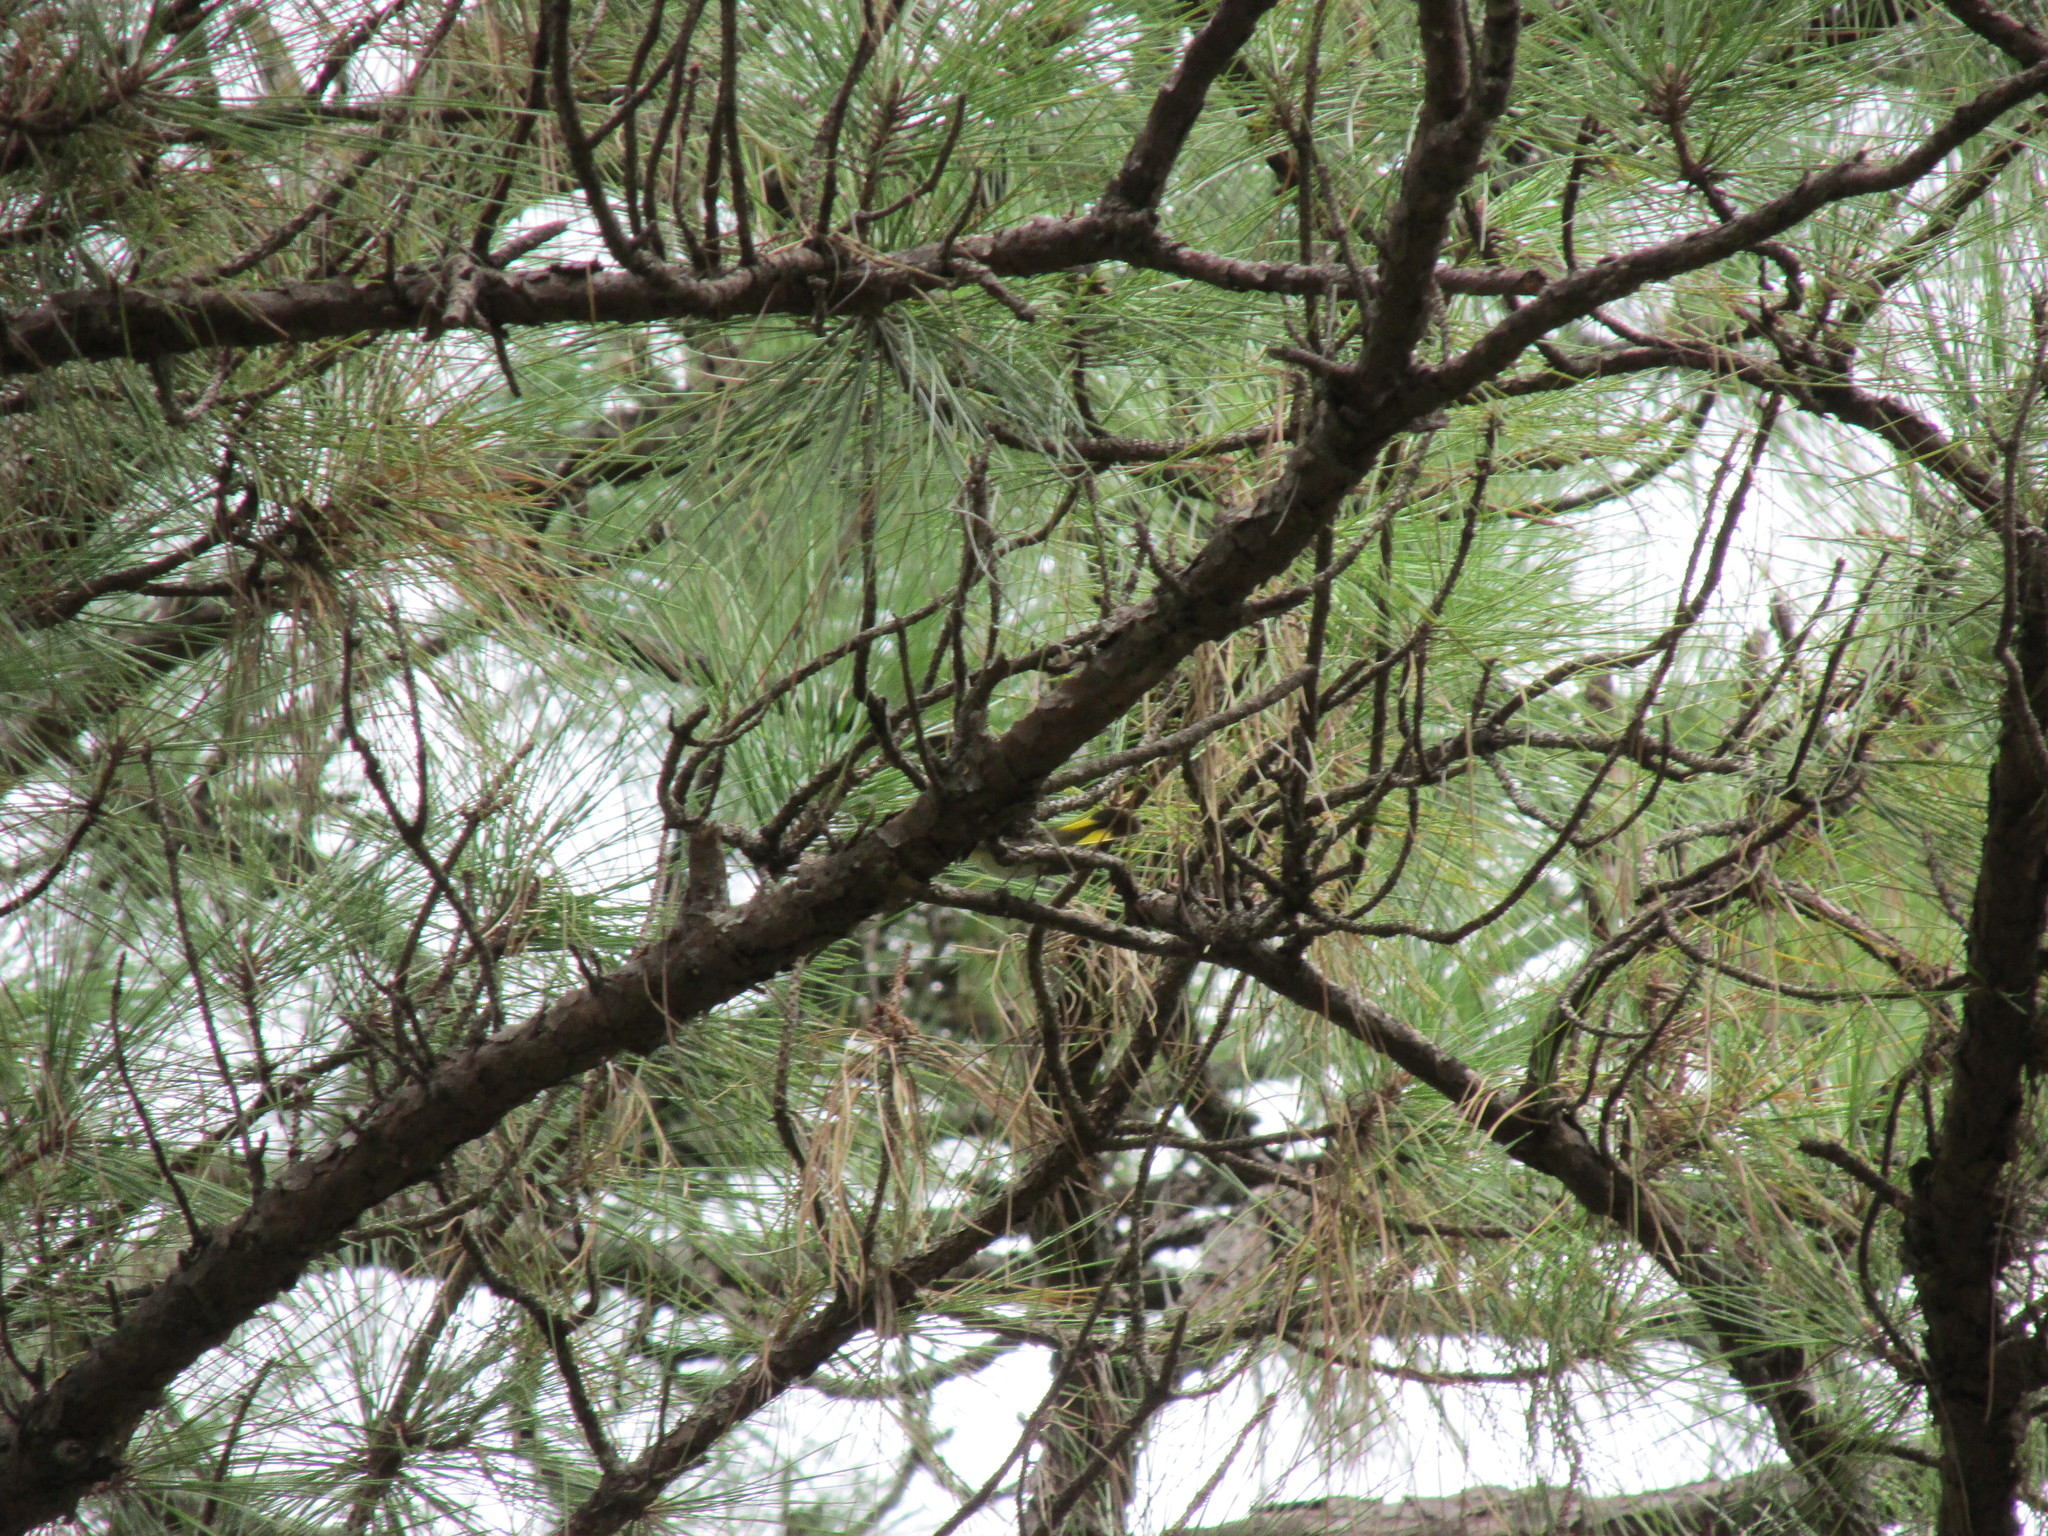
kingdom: Animalia
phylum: Chordata
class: Aves
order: Passeriformes
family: Parulidae
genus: Setophaga
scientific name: Setophaga ruticilla
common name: American redstart
